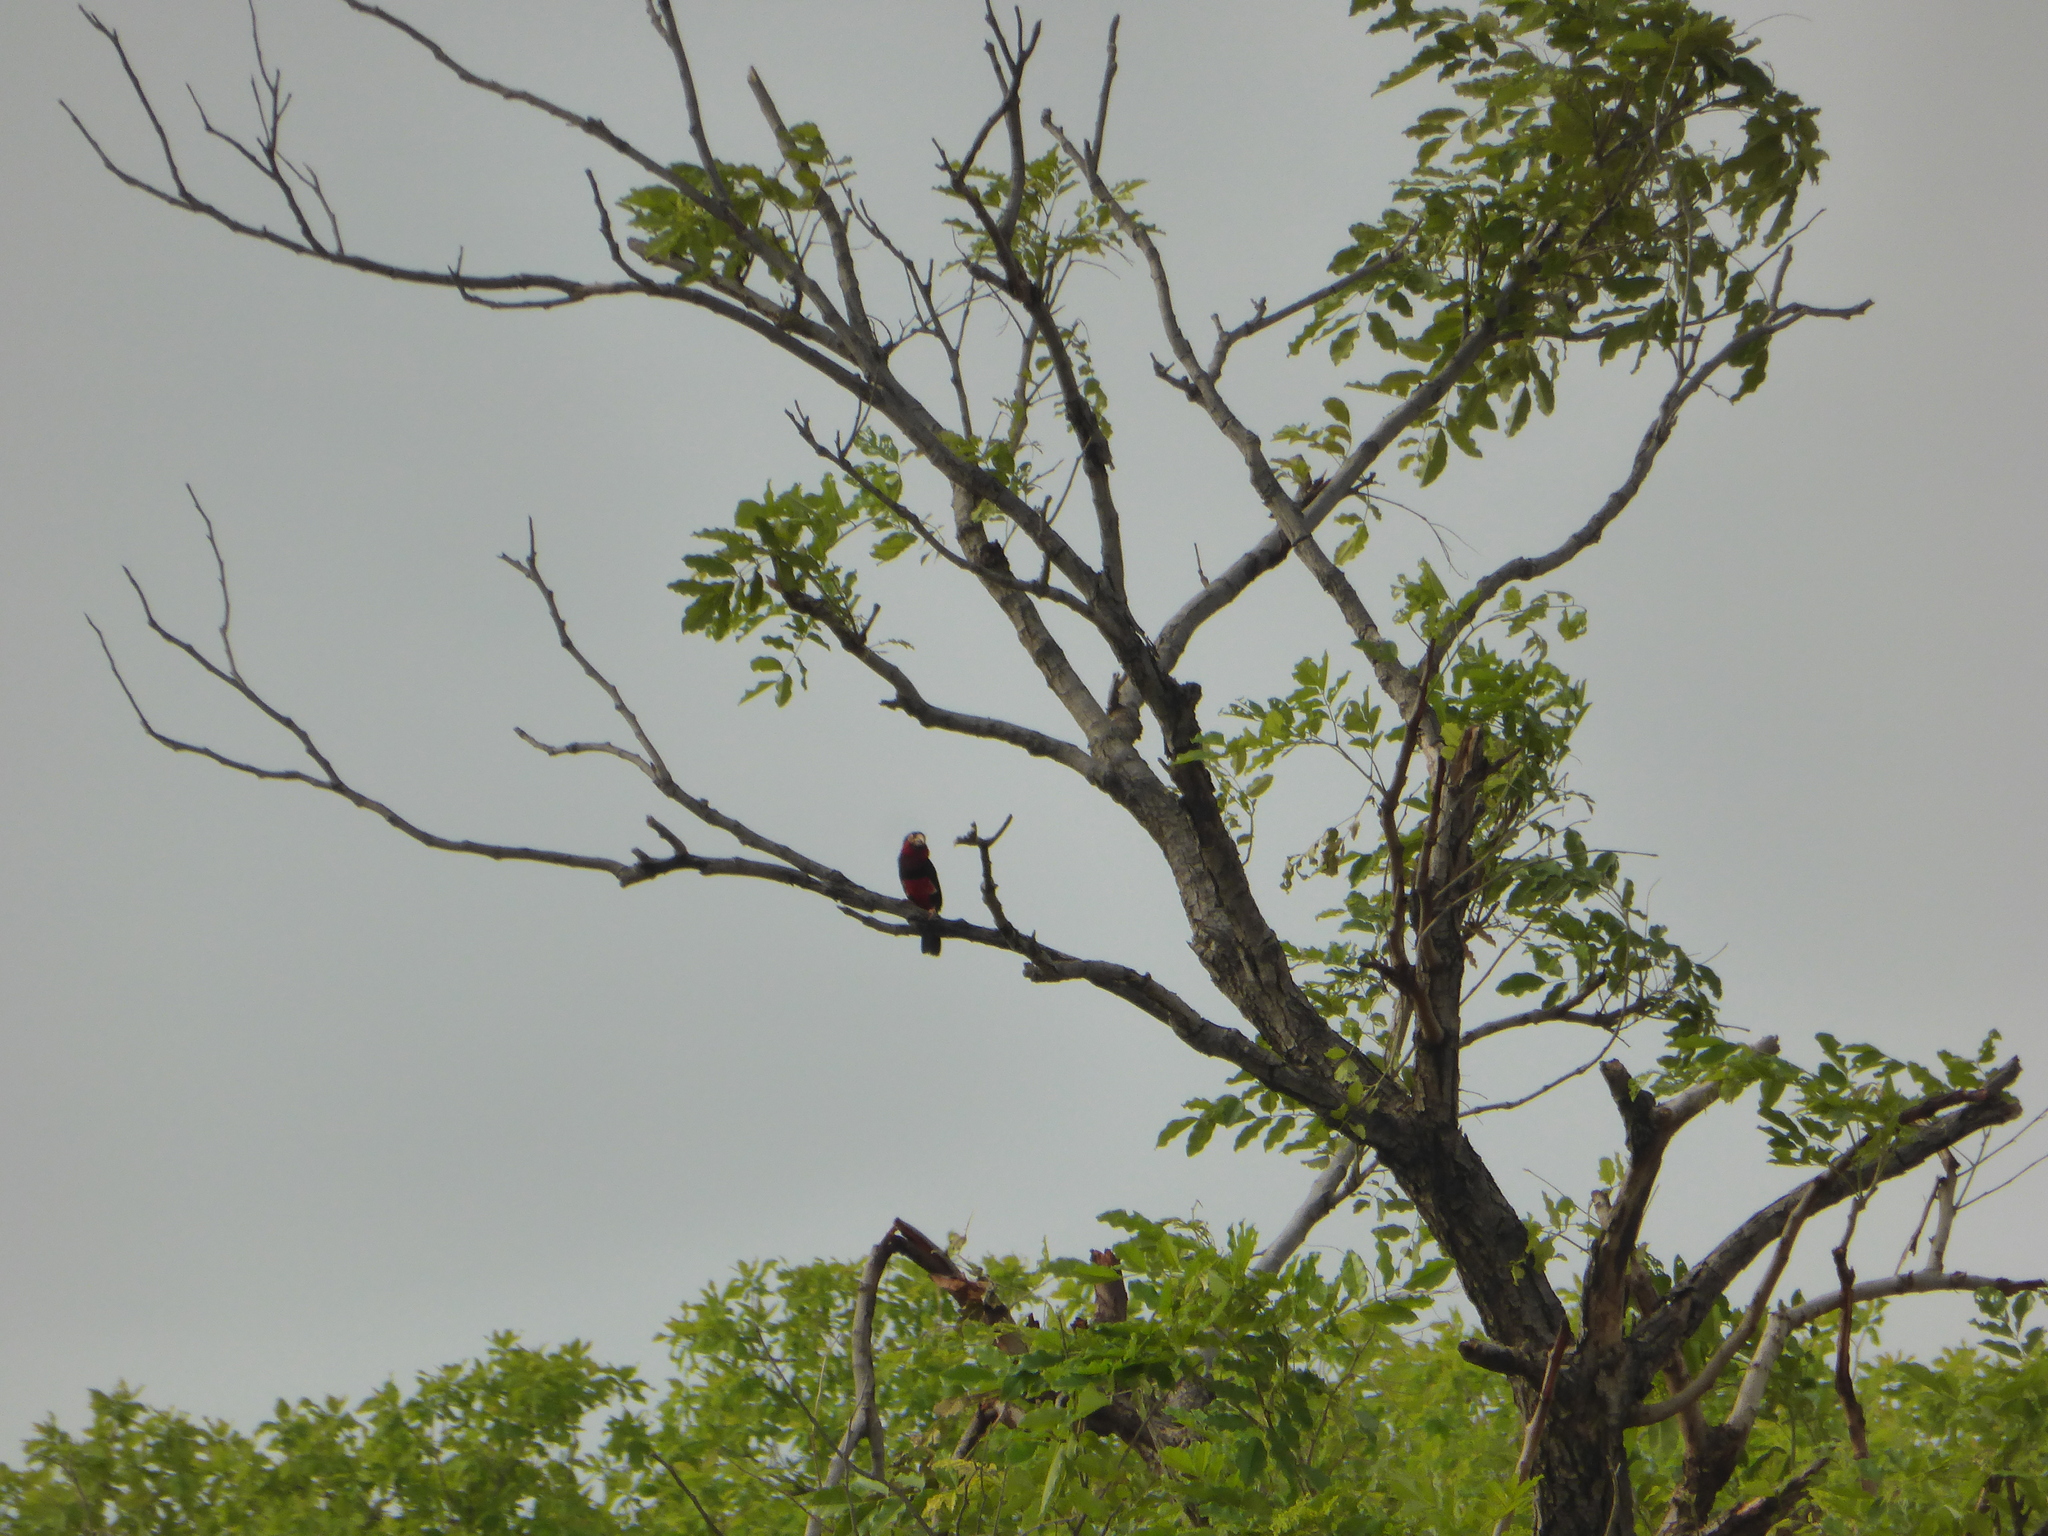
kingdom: Animalia
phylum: Chordata
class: Aves
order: Piciformes
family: Lybiidae
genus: Lybius
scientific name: Lybius dubius
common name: Bearded barbet
